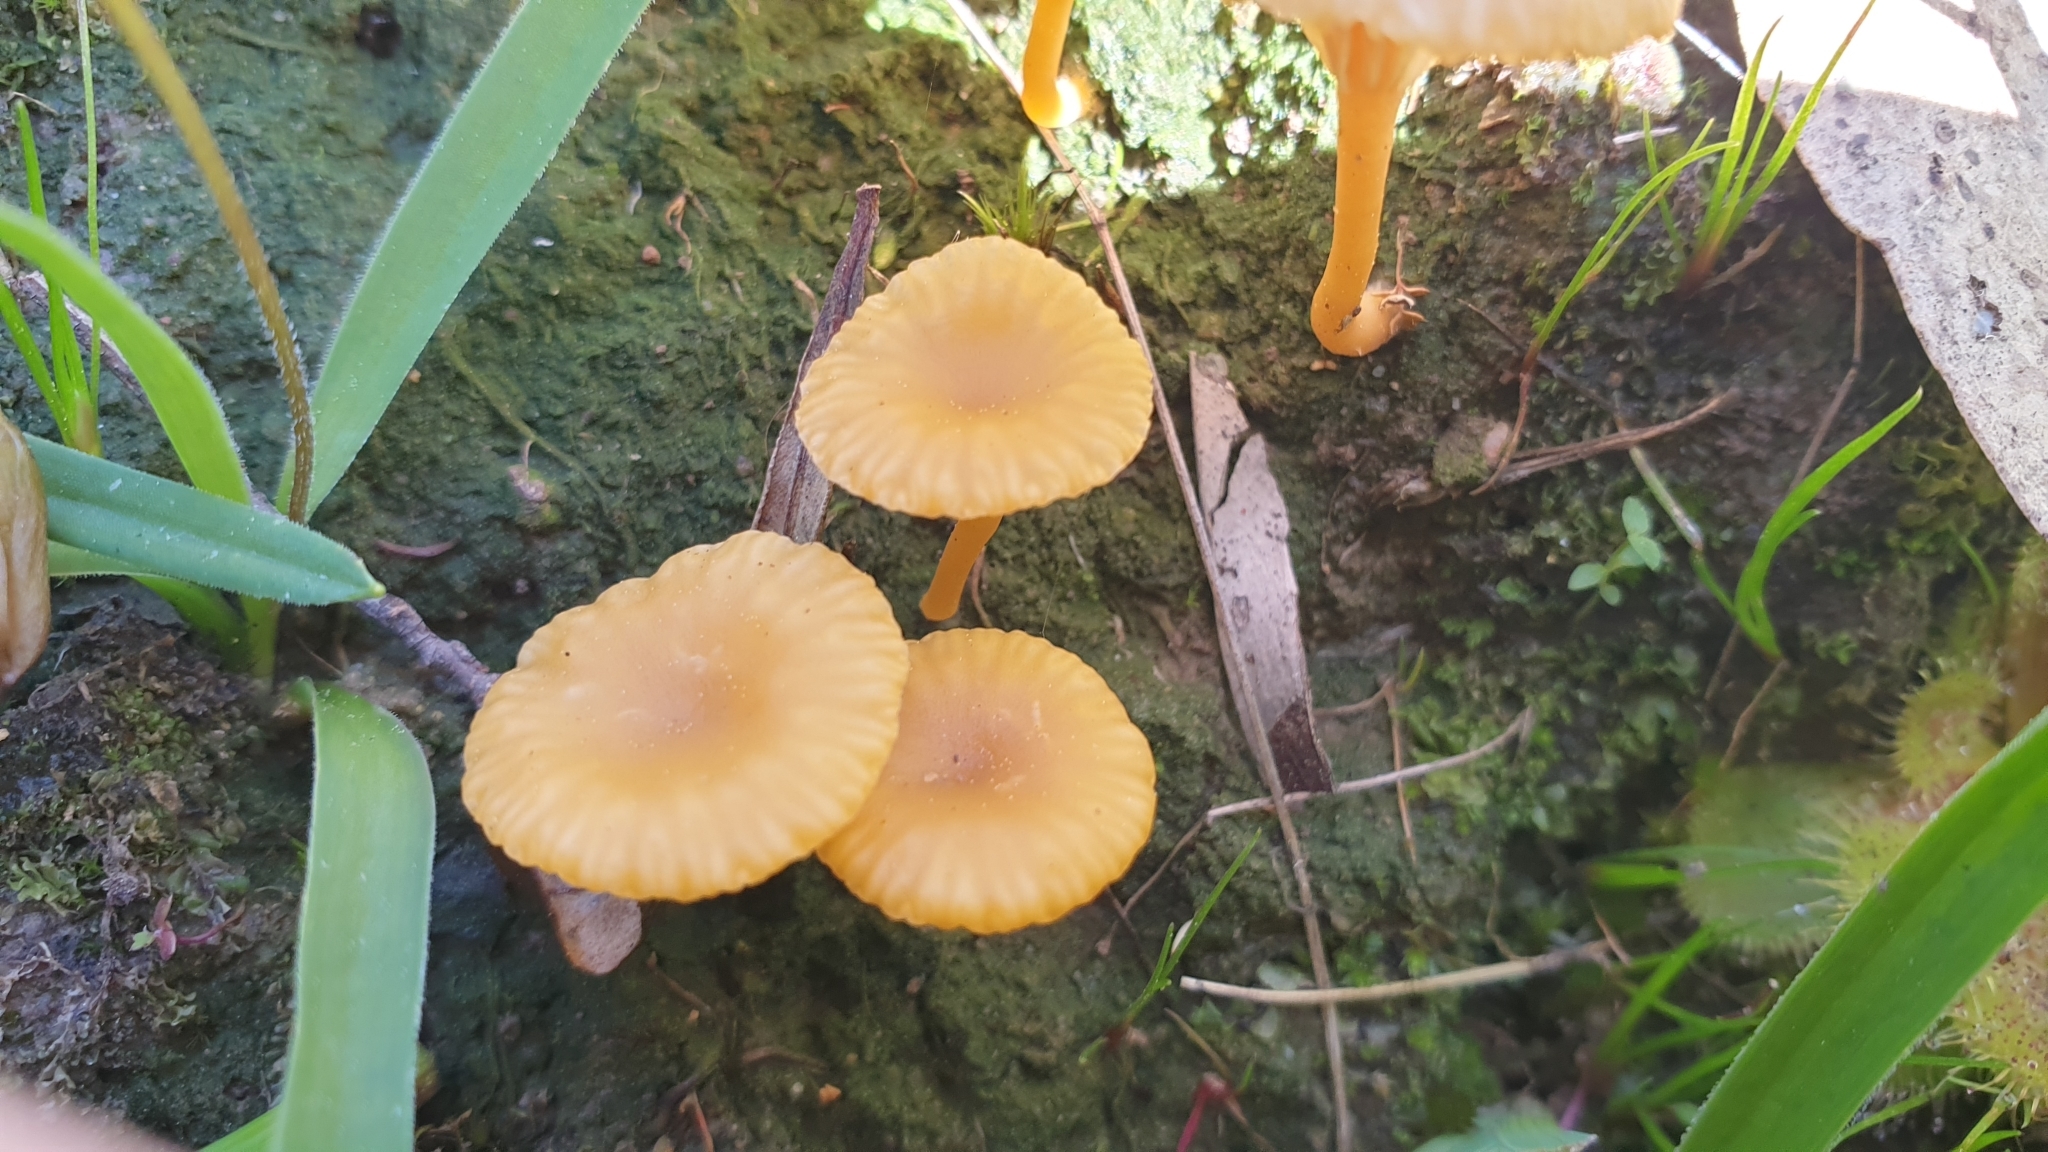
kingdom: Fungi
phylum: Basidiomycota
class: Agaricomycetes
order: Agaricales
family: Hygrophoraceae
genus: Lichenomphalia
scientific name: Lichenomphalia chromacea
